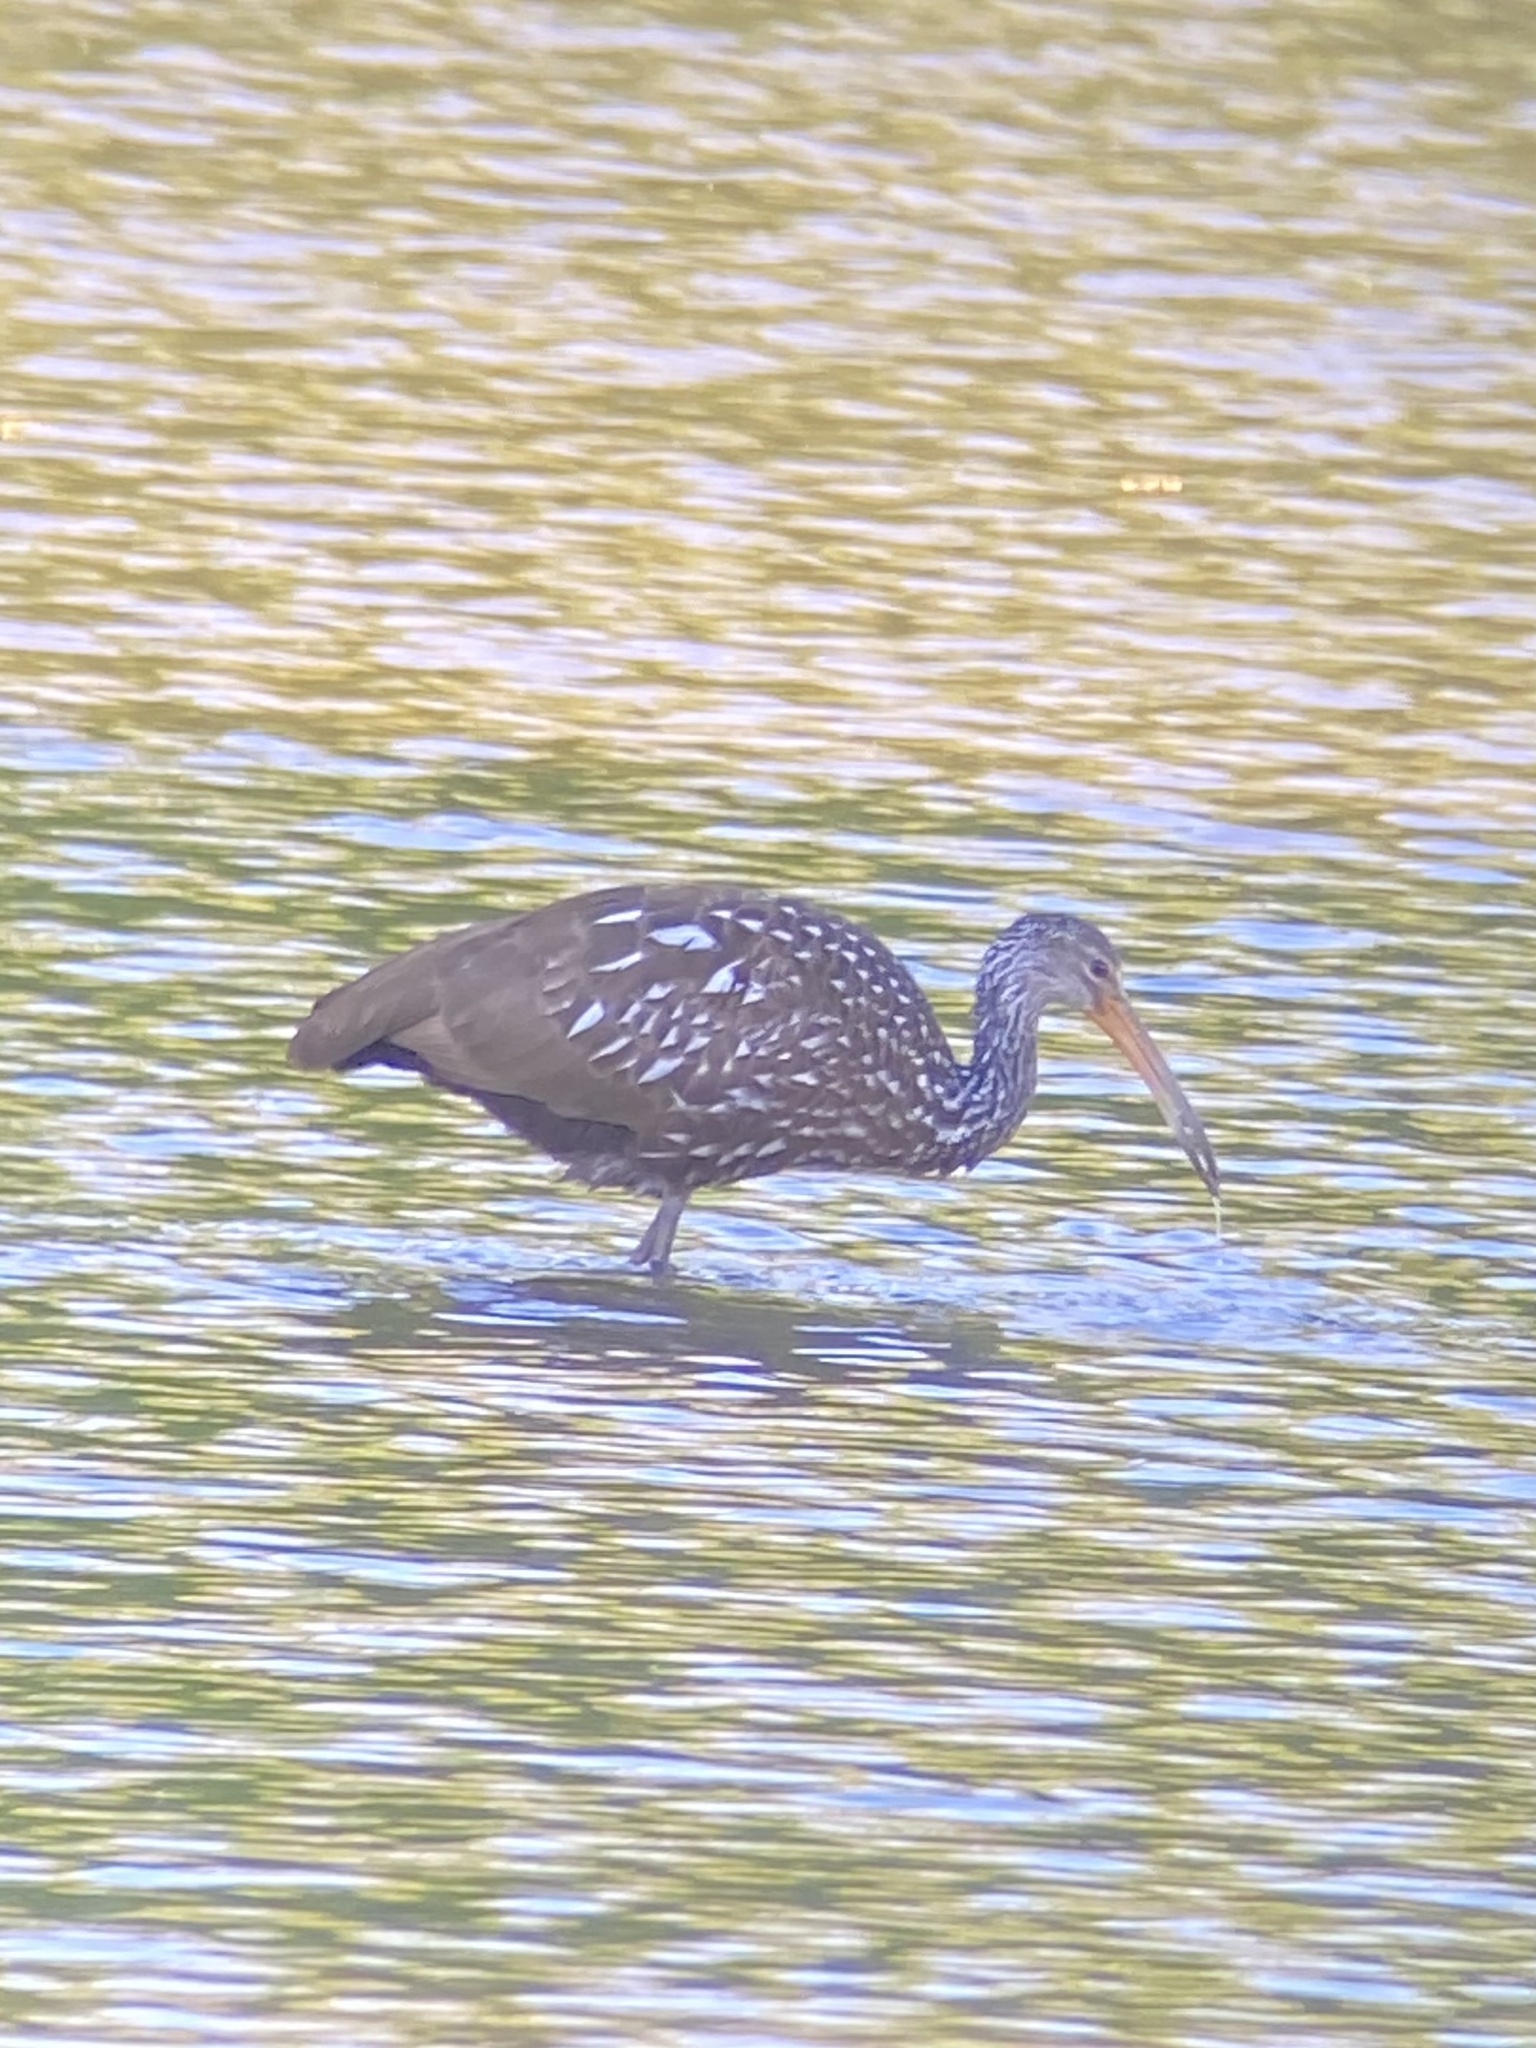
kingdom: Animalia
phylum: Chordata
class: Aves
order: Gruiformes
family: Aramidae
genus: Aramus
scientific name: Aramus guarauna
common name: Limpkin
